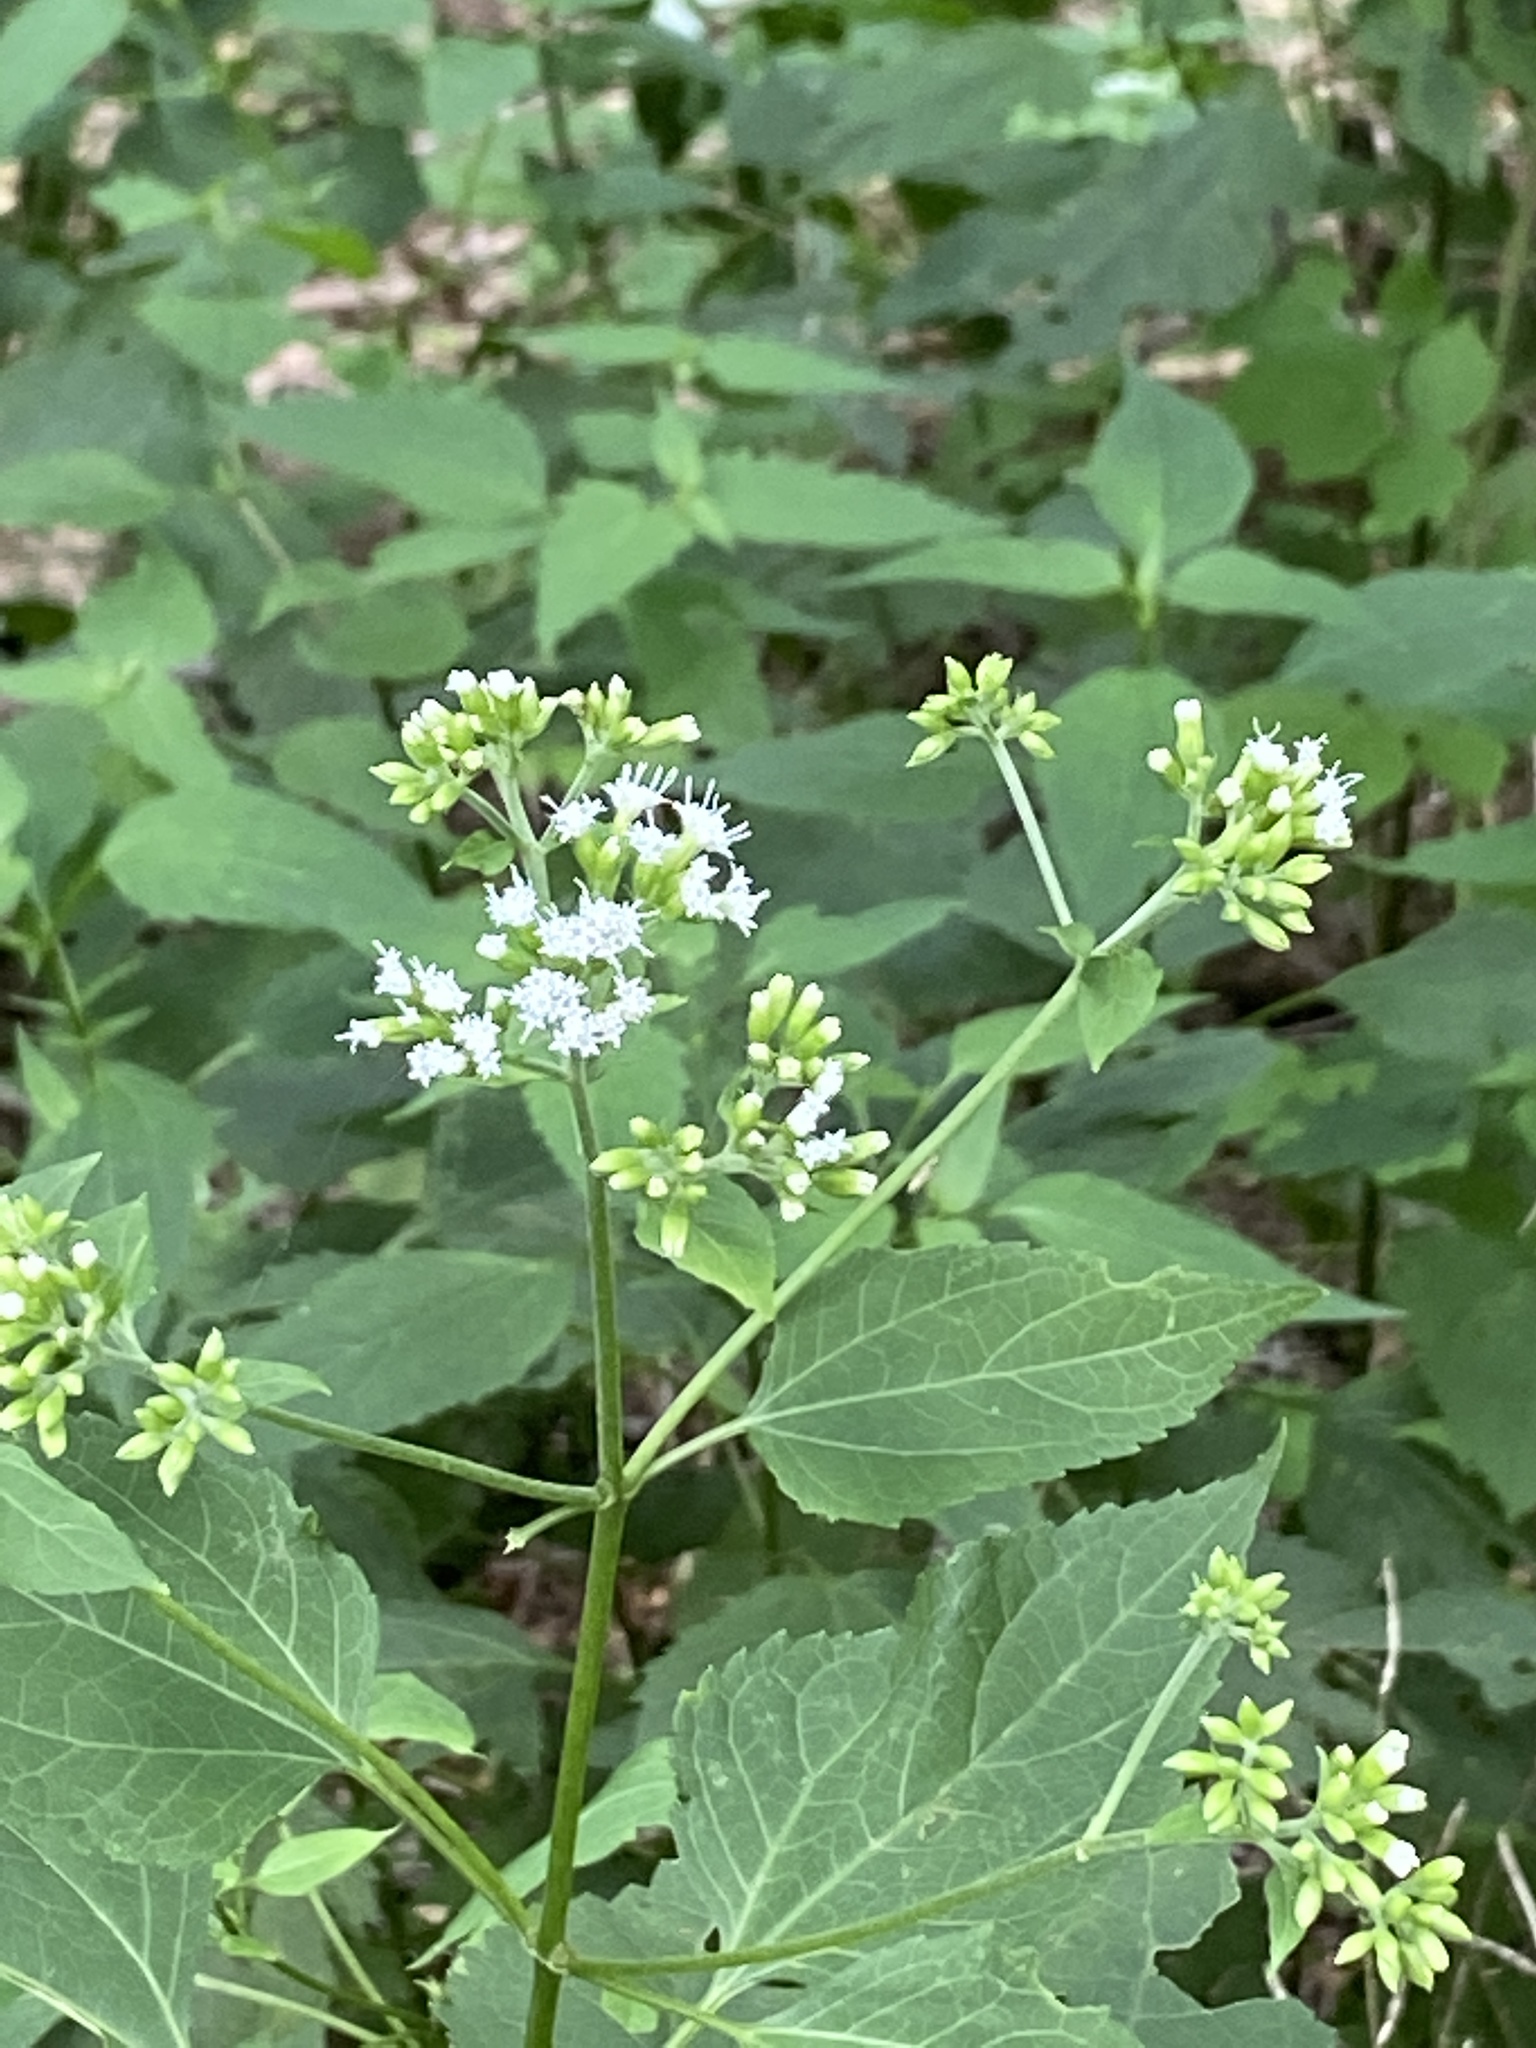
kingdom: Plantae
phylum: Tracheophyta
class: Magnoliopsida
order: Asterales
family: Asteraceae
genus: Ageratina
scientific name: Ageratina altissima
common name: White snakeroot
